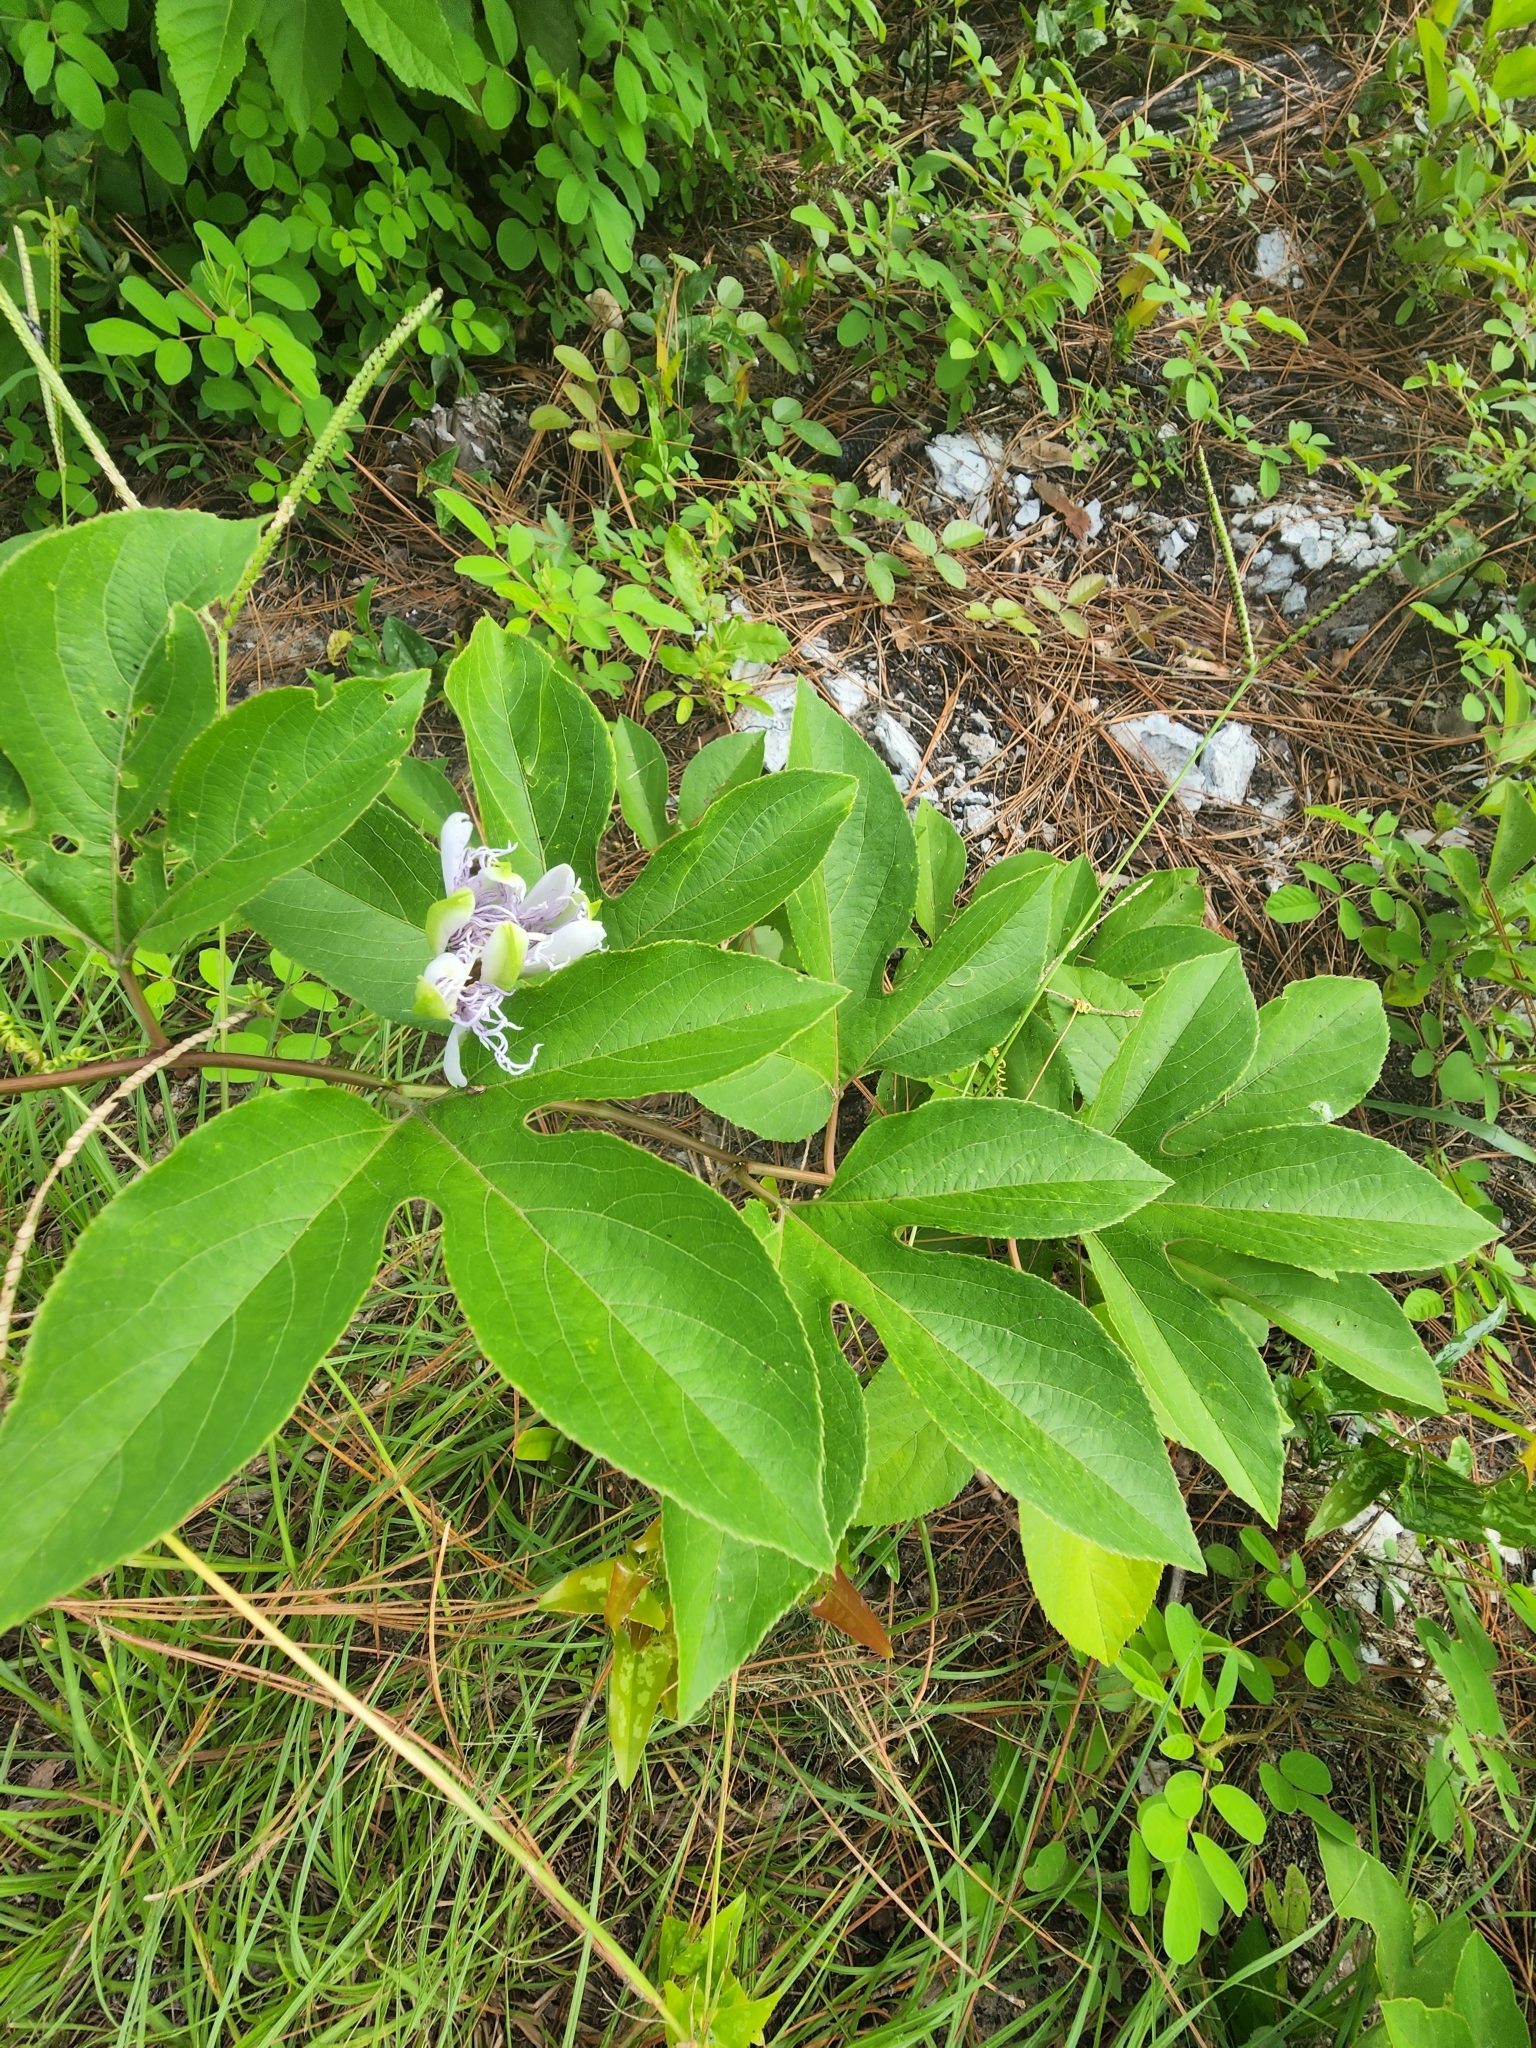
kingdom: Plantae
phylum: Tracheophyta
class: Magnoliopsida
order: Malpighiales
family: Passifloraceae
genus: Passiflora
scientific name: Passiflora incarnata
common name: Apricot-vine
